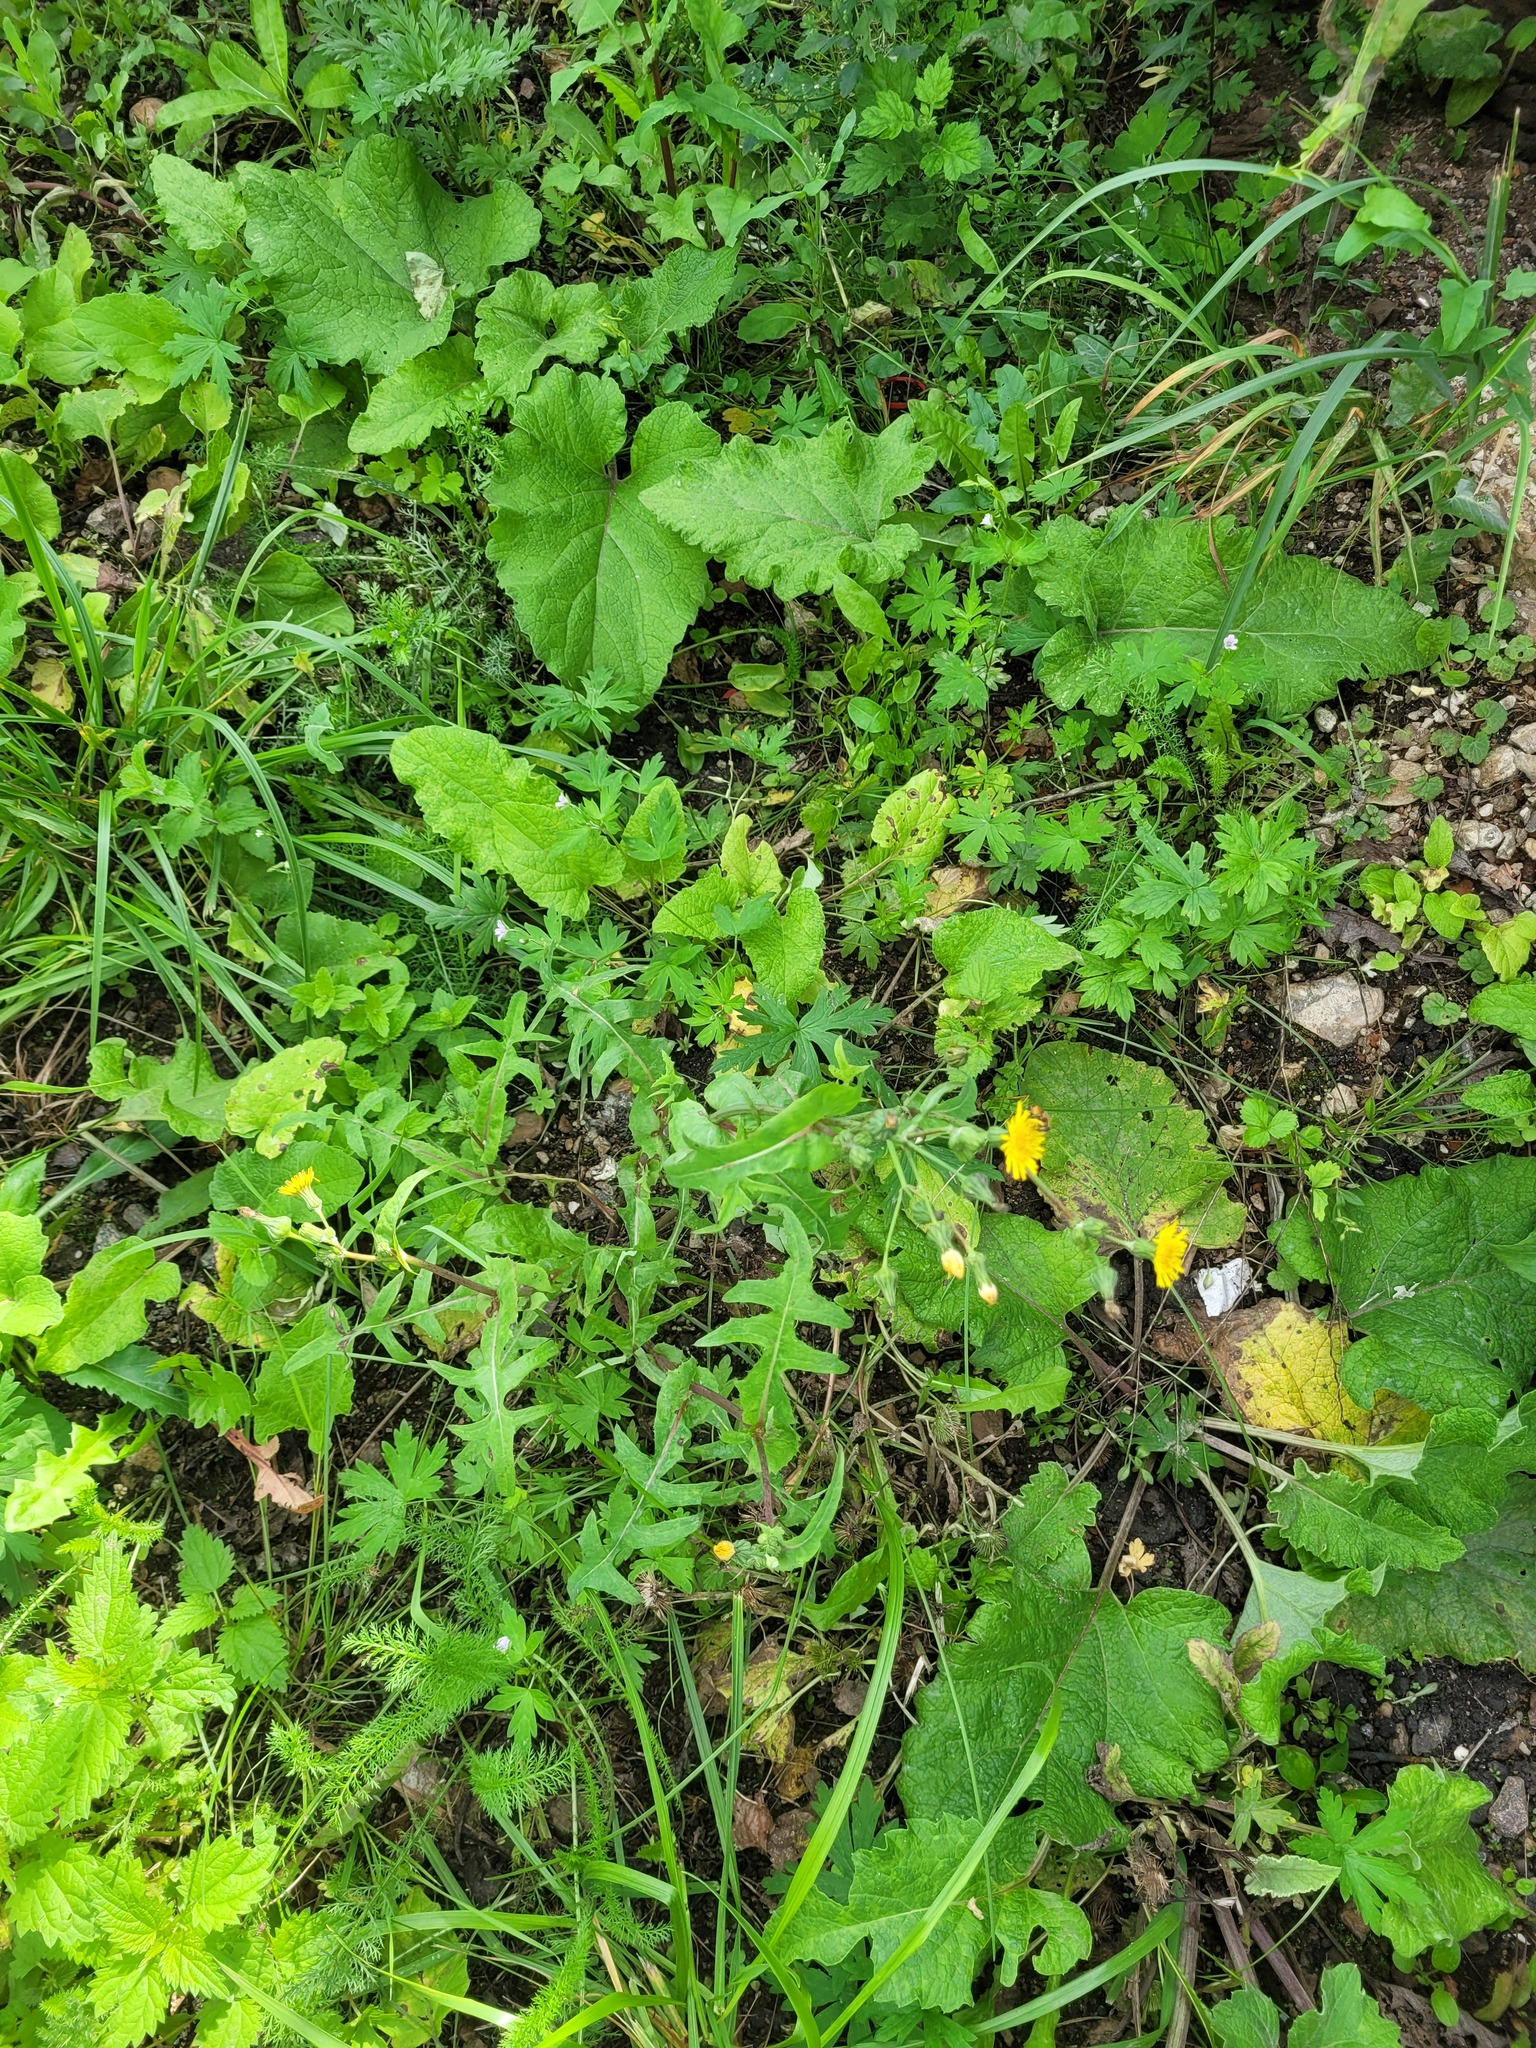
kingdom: Plantae
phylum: Tracheophyta
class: Magnoliopsida
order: Asterales
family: Asteraceae
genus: Sonchus
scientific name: Sonchus oleraceus
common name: Common sowthistle
